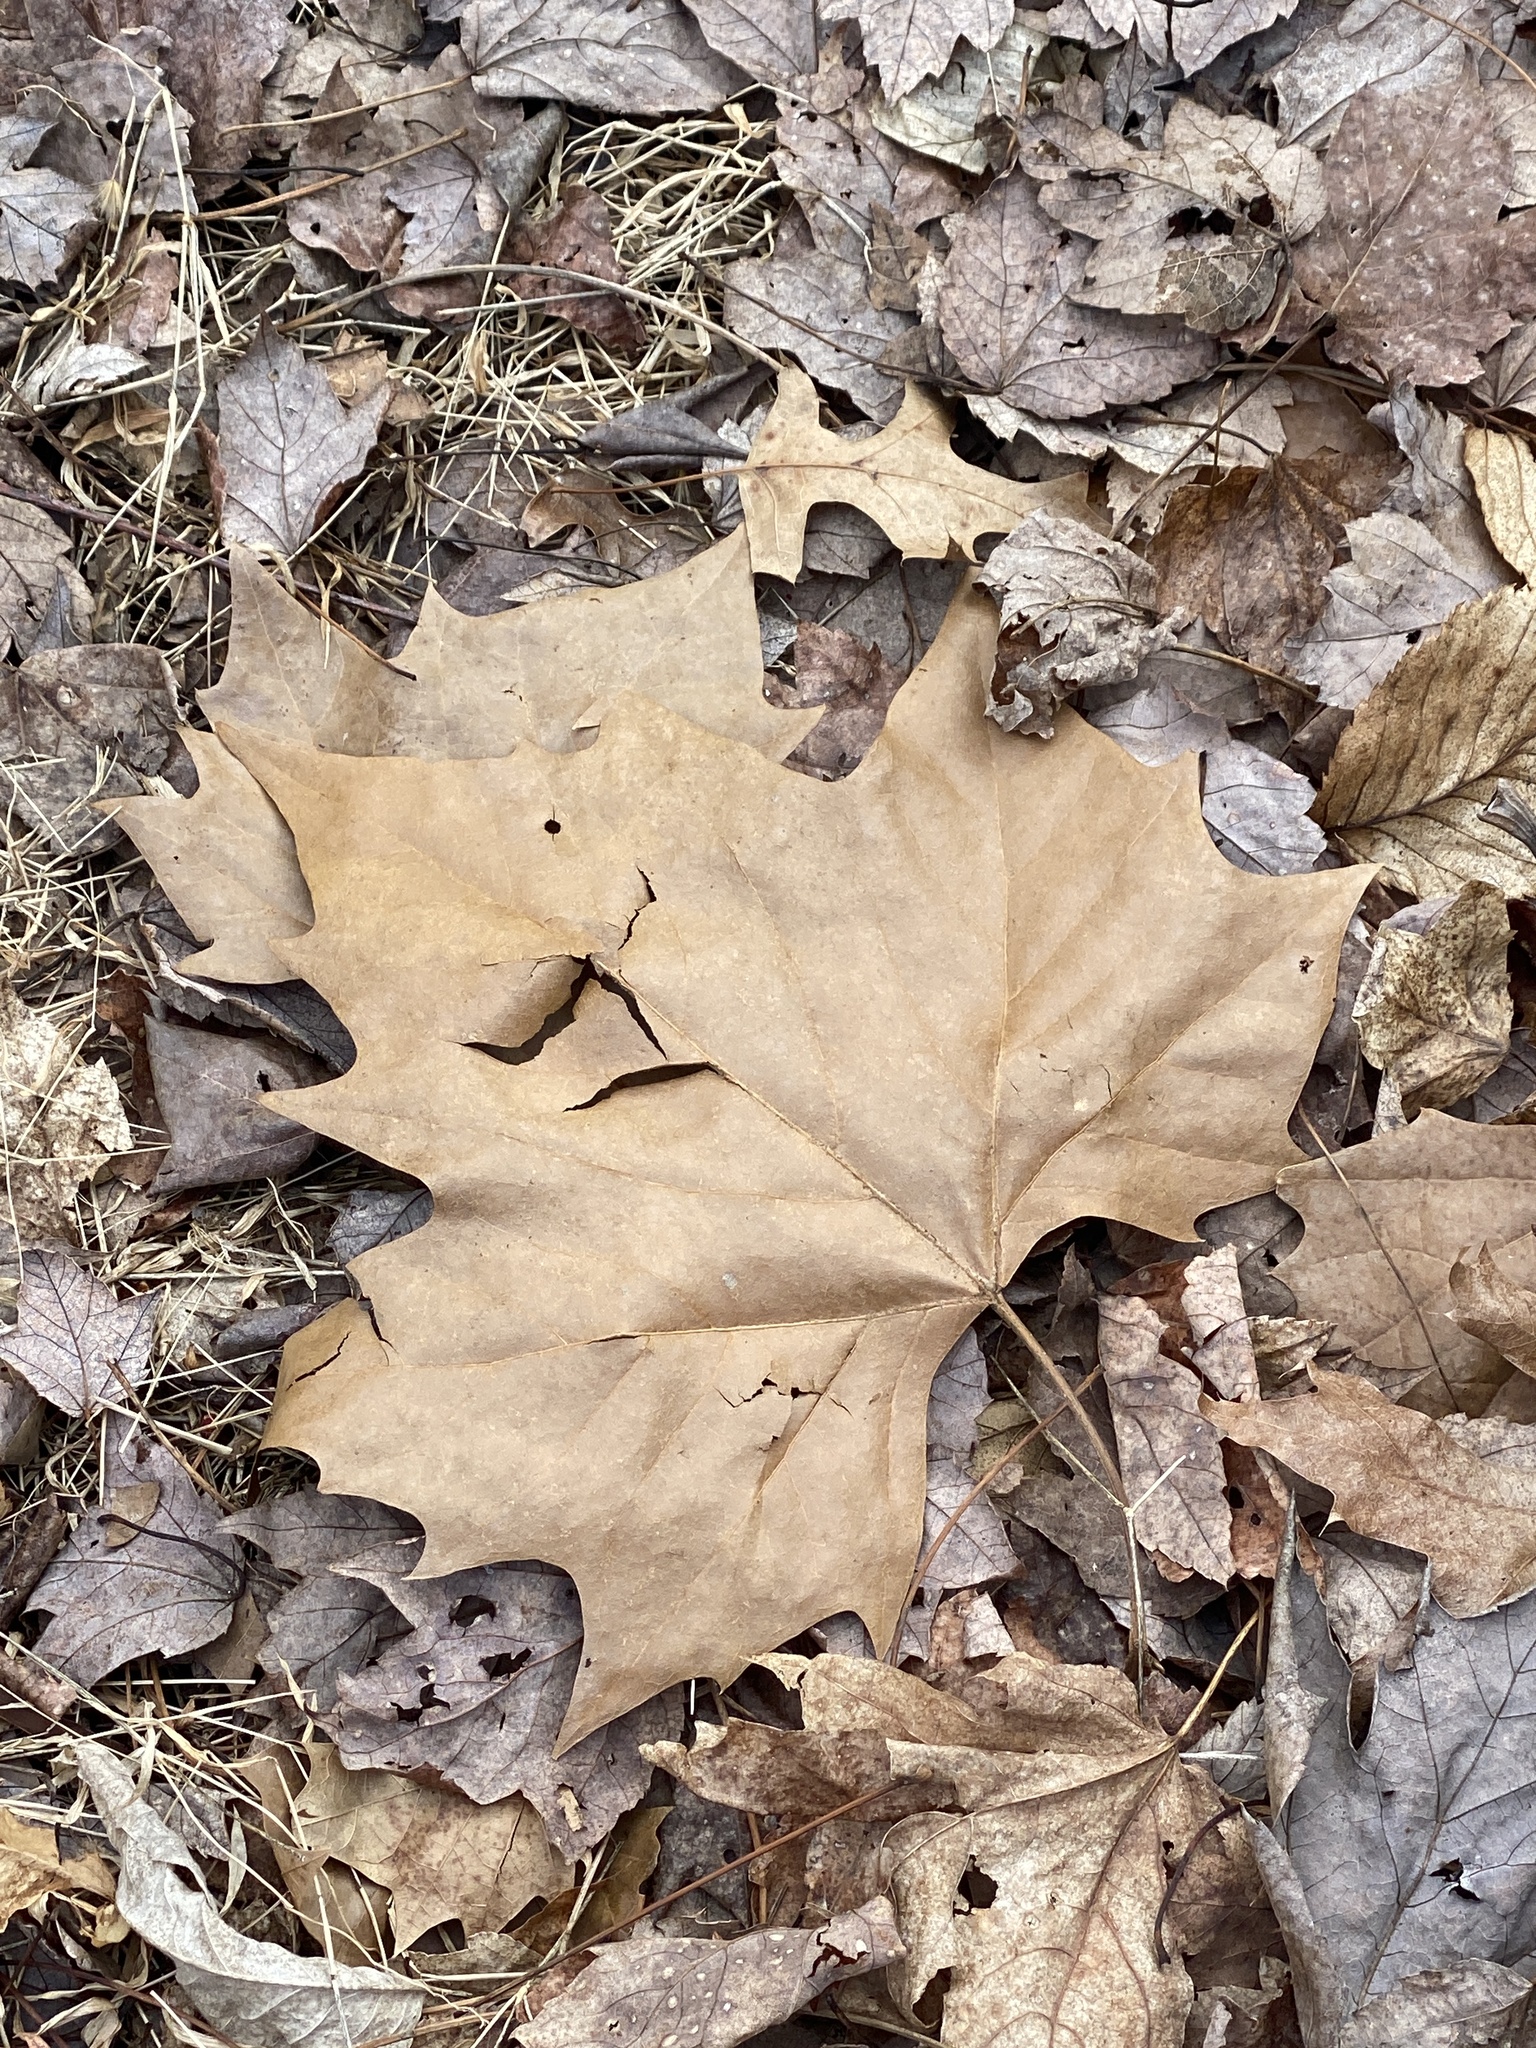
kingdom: Plantae
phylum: Tracheophyta
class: Magnoliopsida
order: Proteales
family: Platanaceae
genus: Platanus
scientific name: Platanus occidentalis
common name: American sycamore
